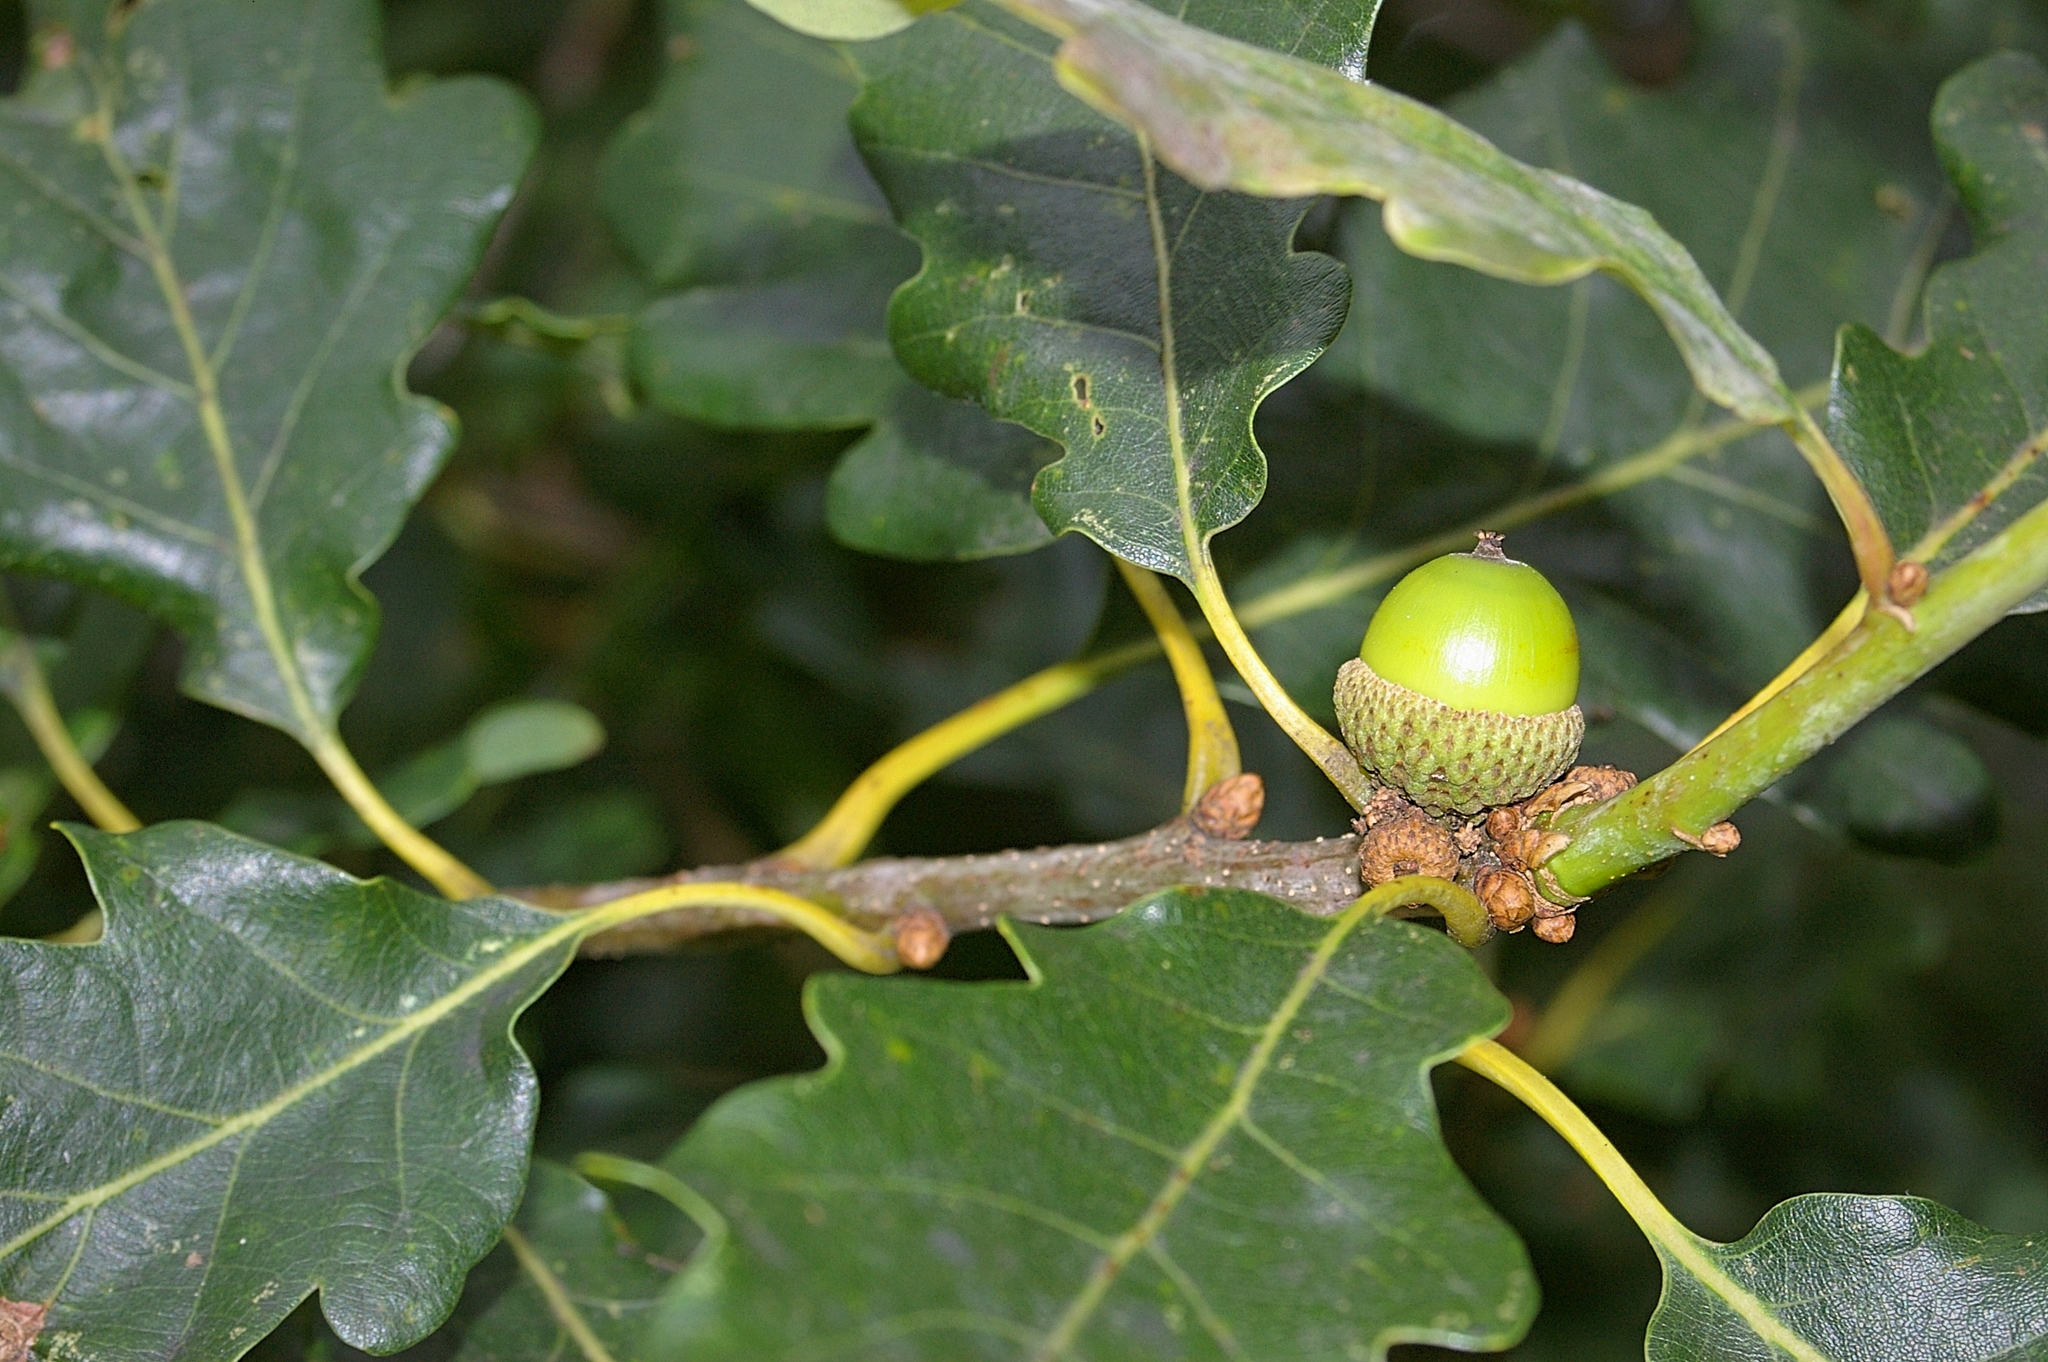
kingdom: Plantae
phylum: Tracheophyta
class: Magnoliopsida
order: Fagales
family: Fagaceae
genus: Quercus
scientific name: Quercus petraea
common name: Sessile oak
